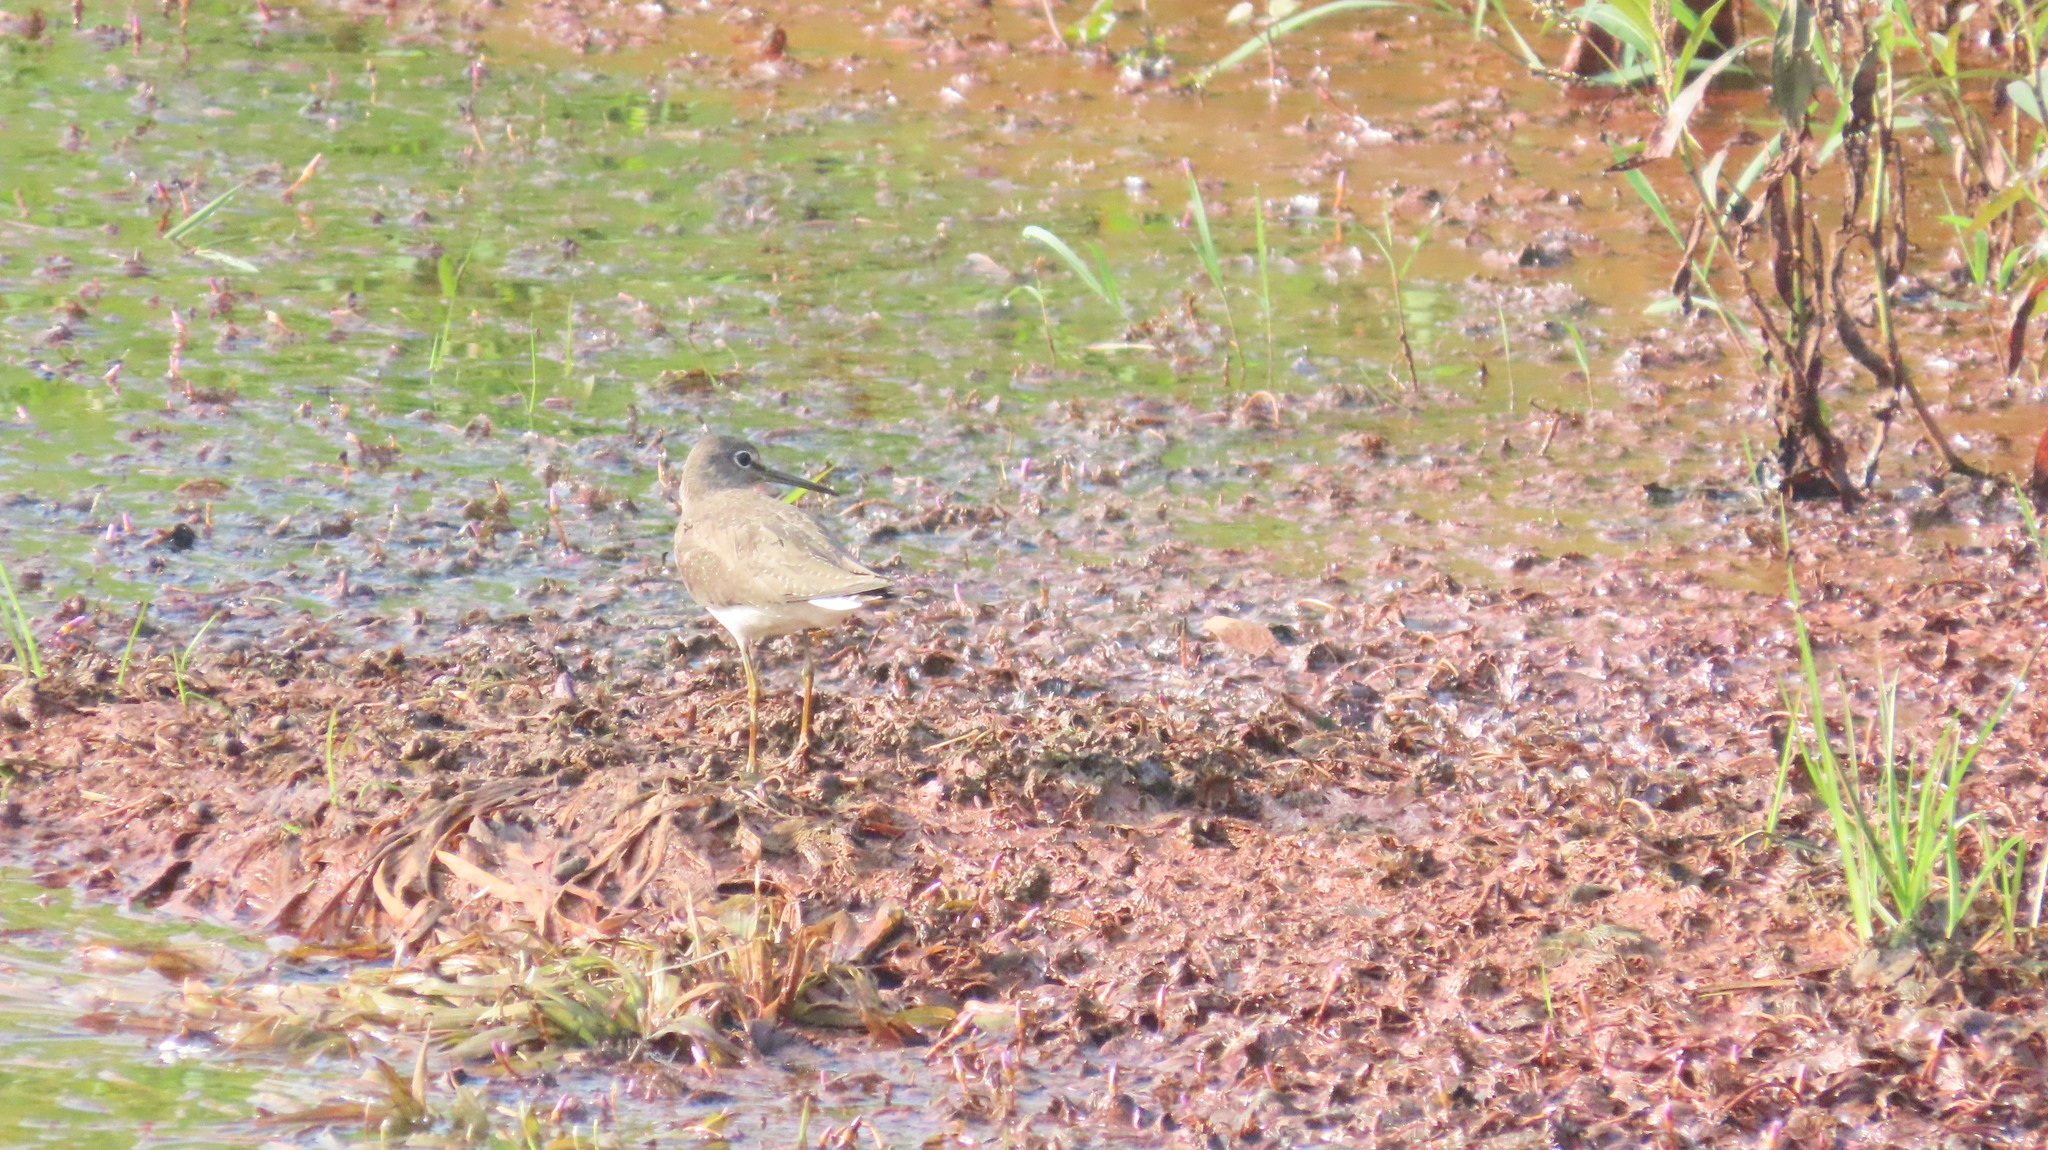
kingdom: Animalia
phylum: Chordata
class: Aves
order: Charadriiformes
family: Scolopacidae
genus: Tringa
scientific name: Tringa ochropus
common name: Green sandpiper
